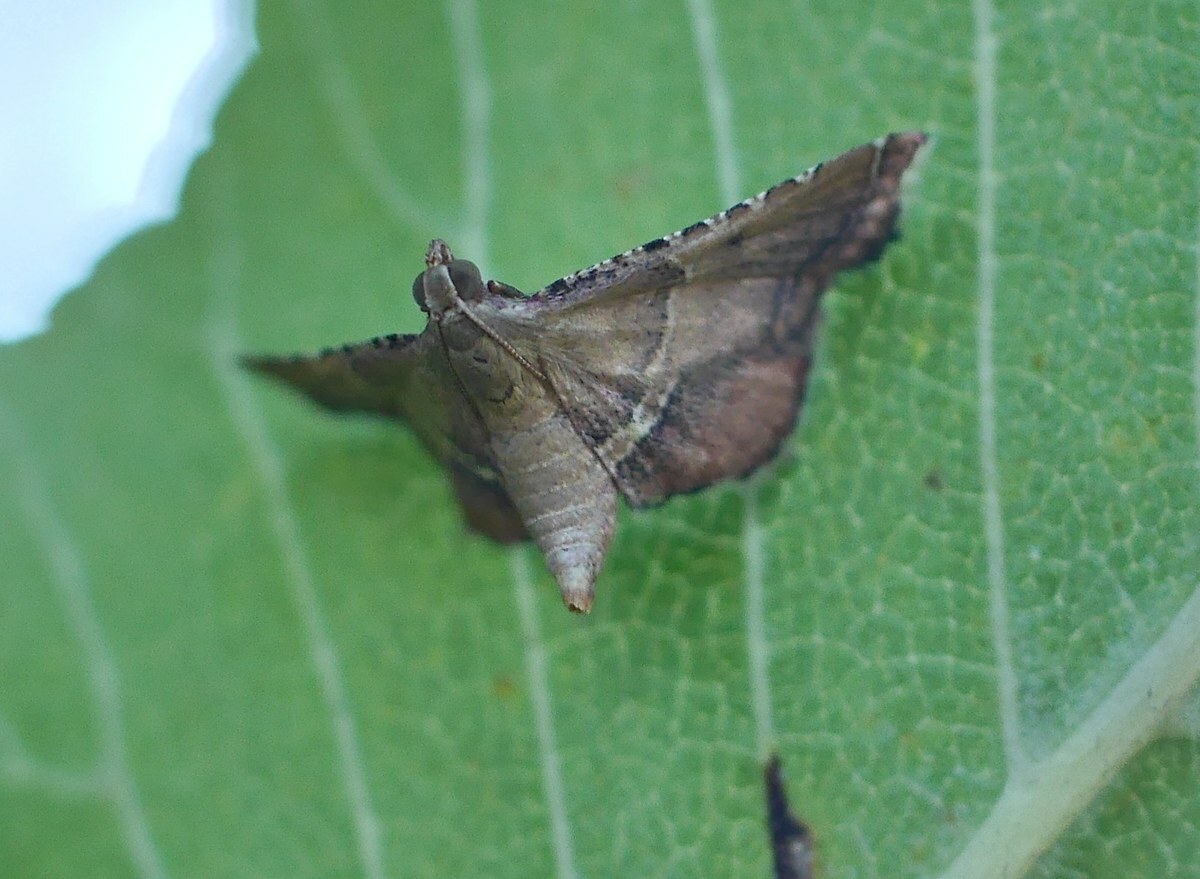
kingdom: Animalia
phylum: Arthropoda
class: Insecta
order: Lepidoptera
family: Pyralidae
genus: Endotricha
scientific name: Endotricha flammealis
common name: Rosy tabby
